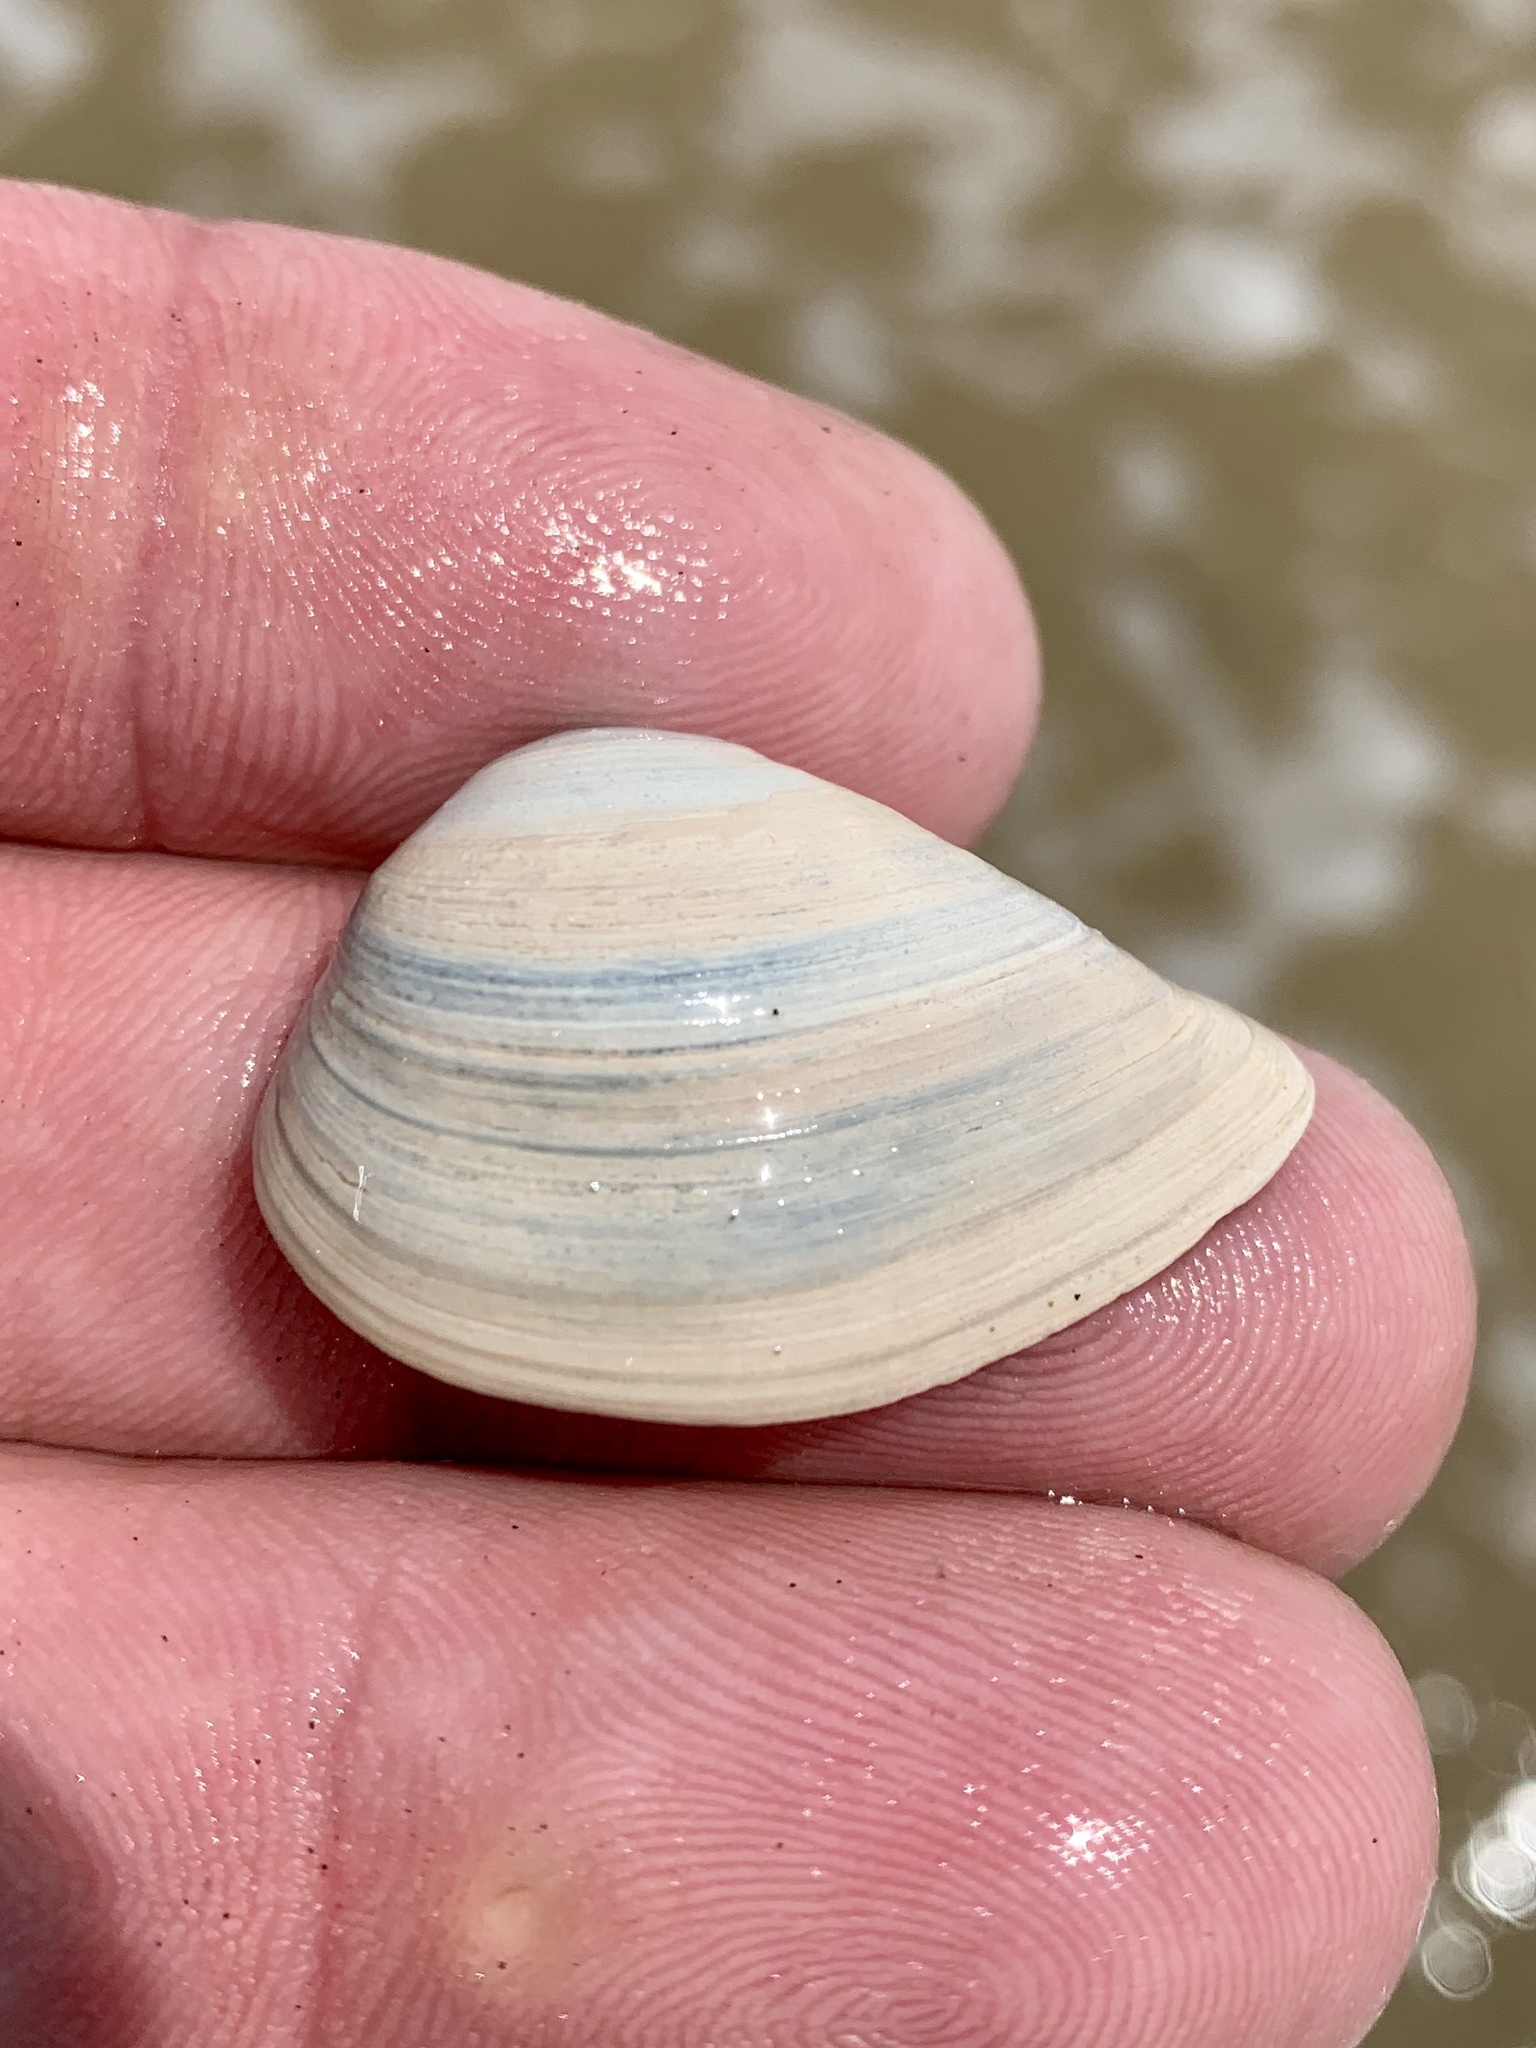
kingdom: Animalia
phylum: Mollusca
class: Bivalvia
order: Venerida
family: Mactridae
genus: Rangia
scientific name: Rangia flexuosa
